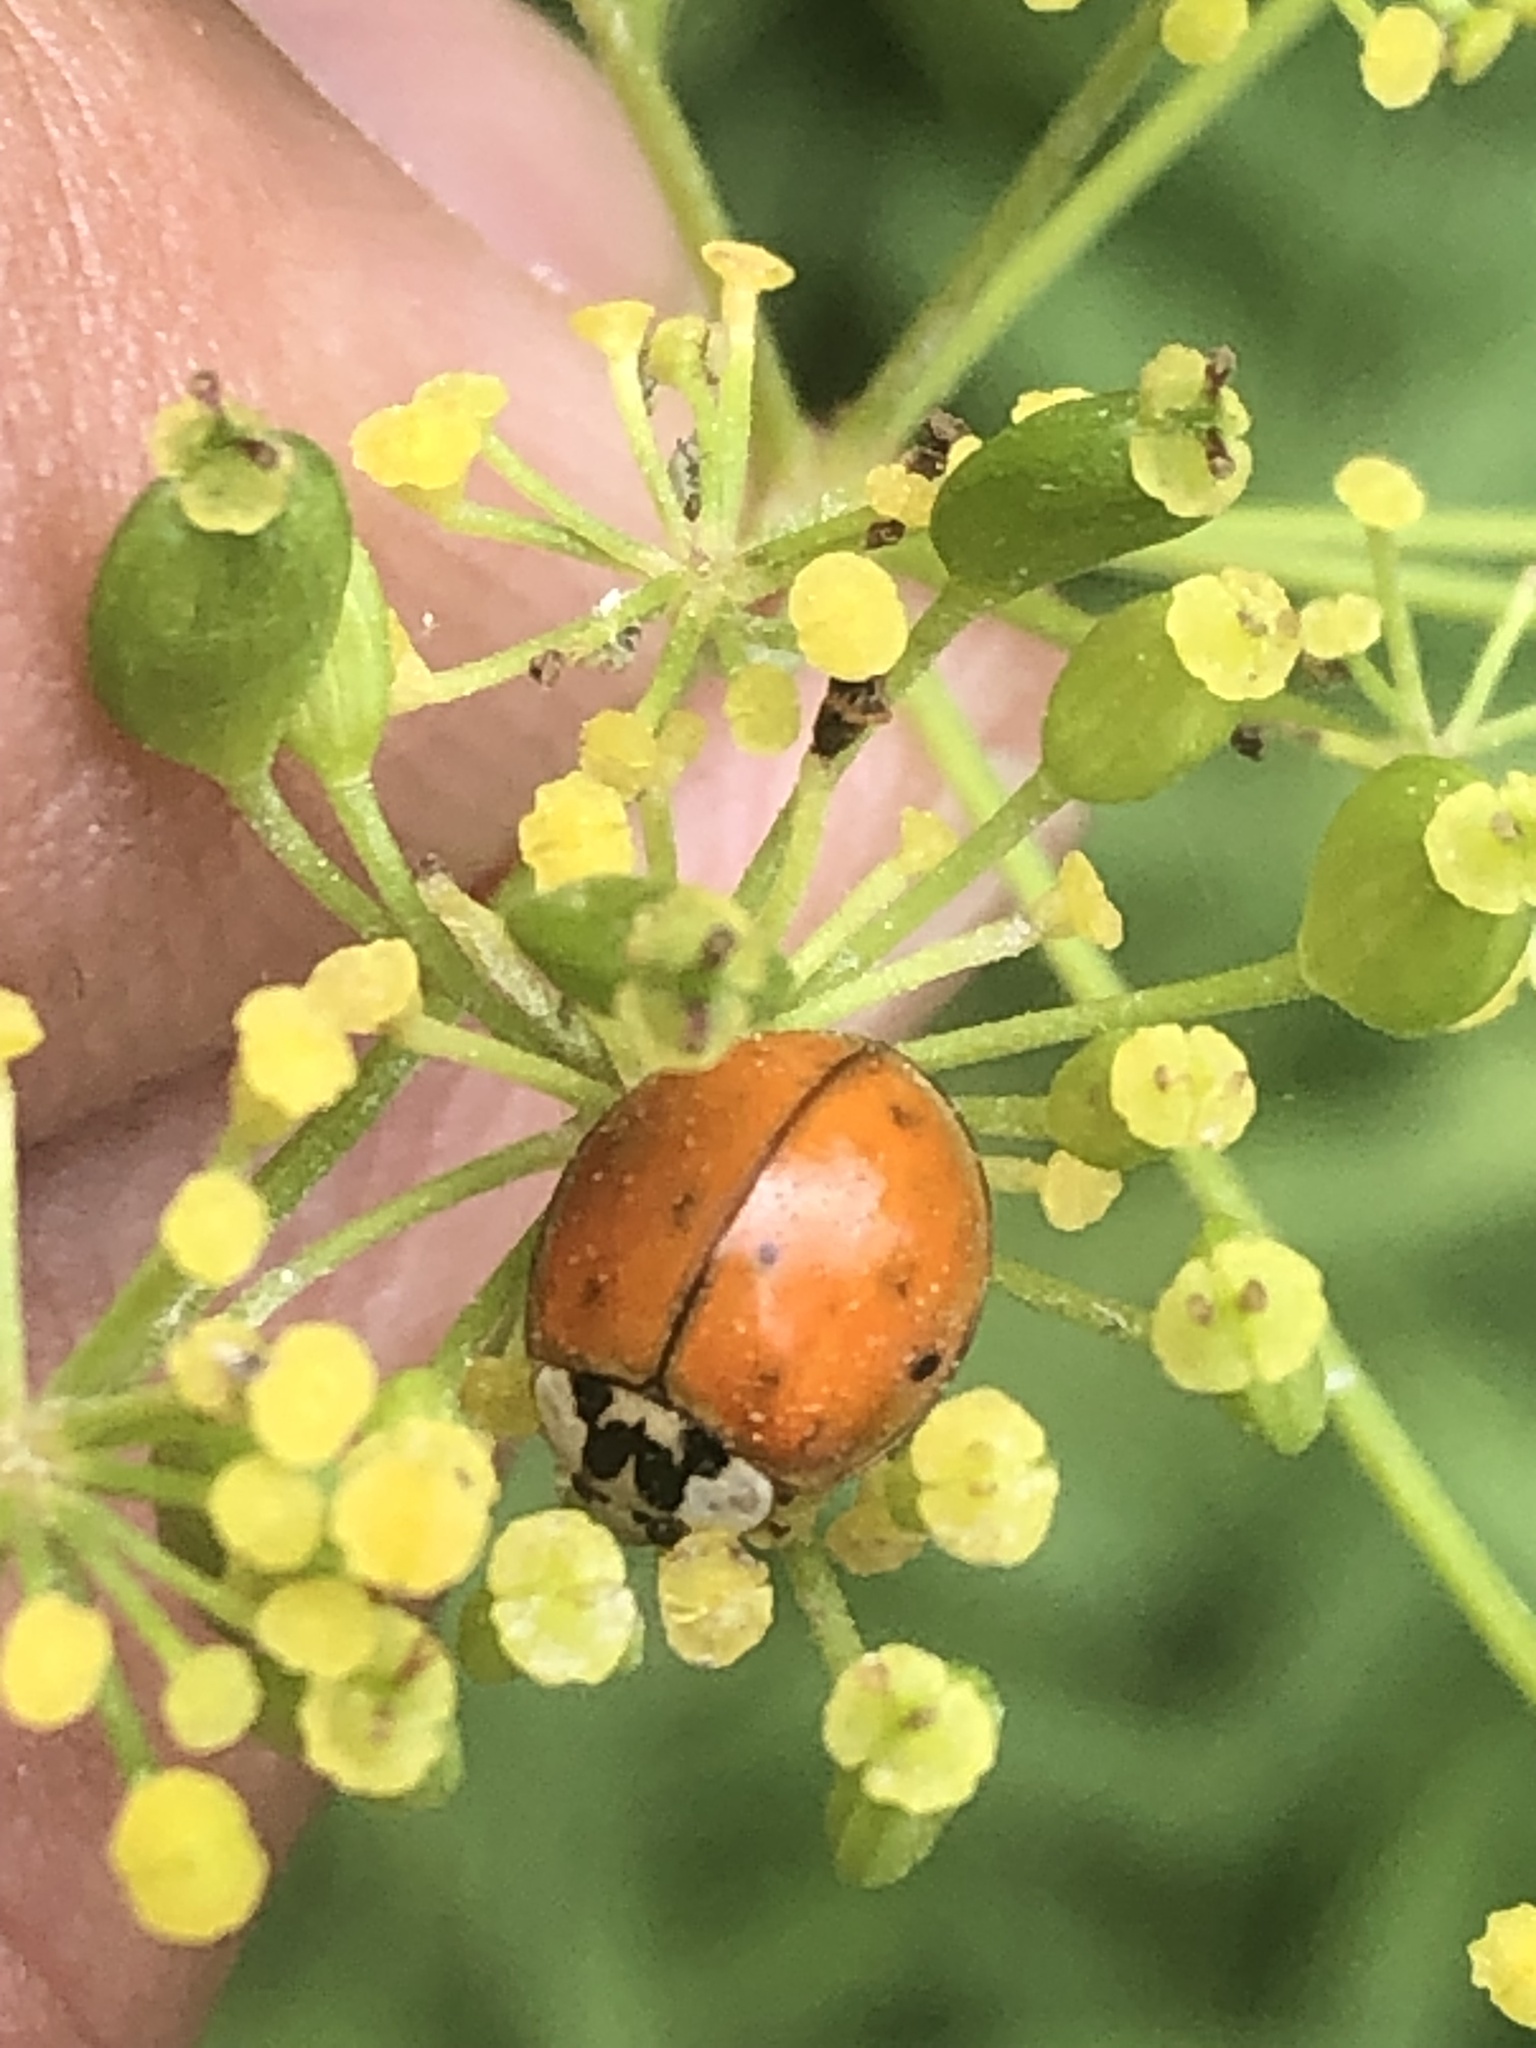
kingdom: Animalia
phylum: Arthropoda
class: Insecta
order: Coleoptera
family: Coccinellidae
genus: Harmonia
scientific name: Harmonia axyridis
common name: Harlequin ladybird
